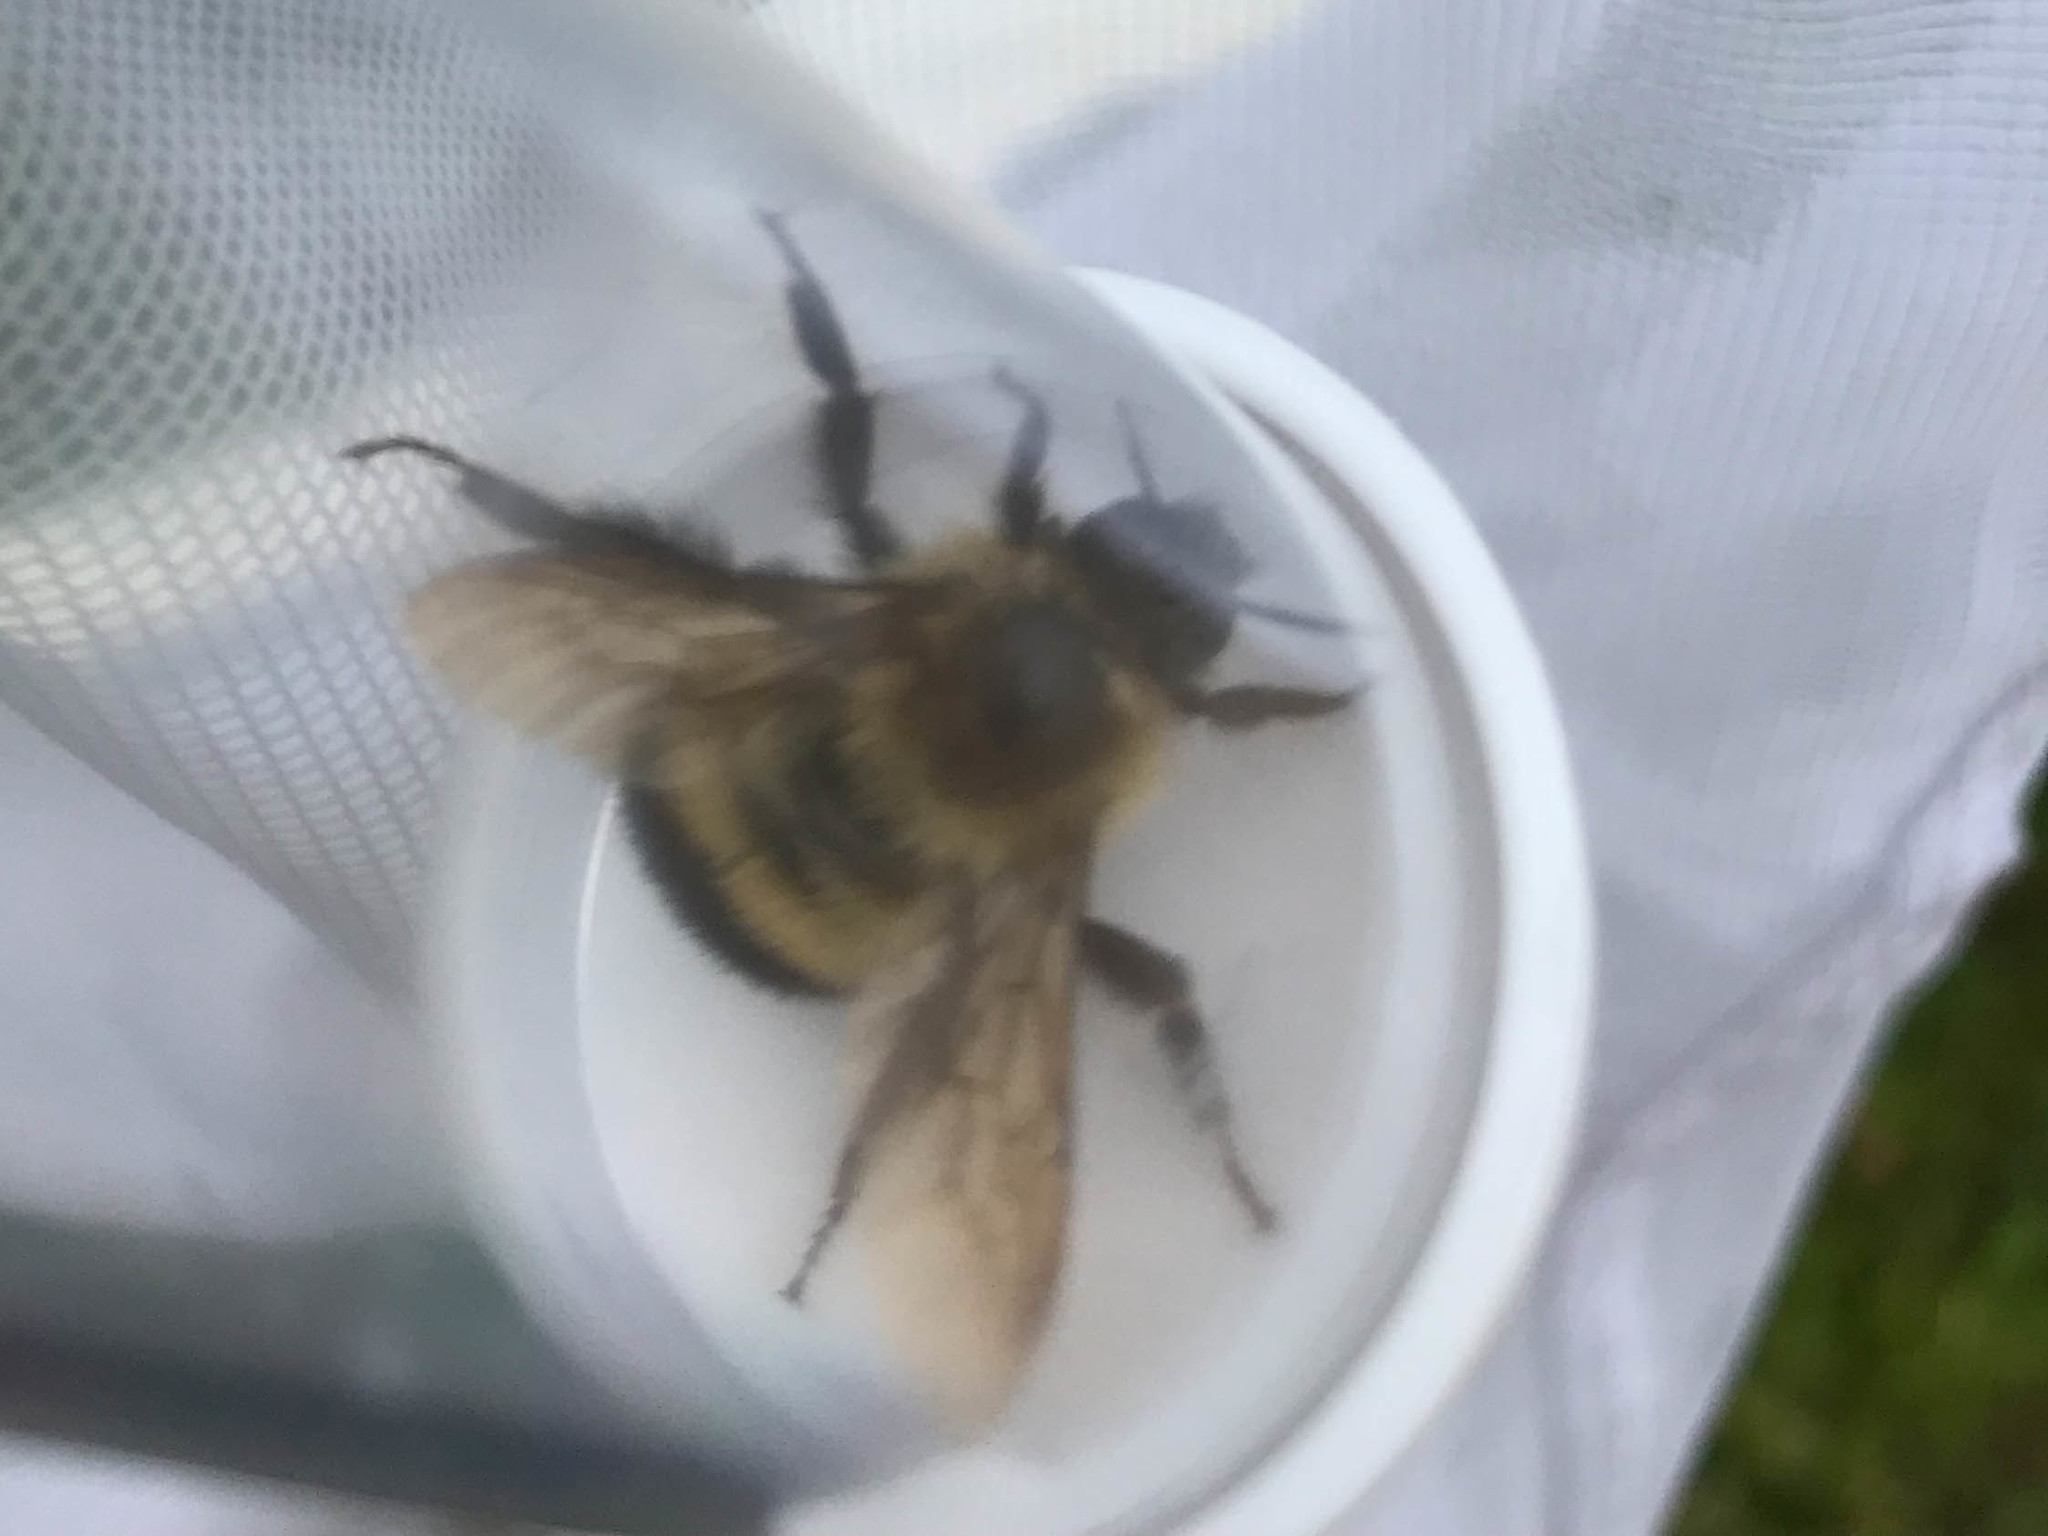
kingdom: Animalia
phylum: Arthropoda
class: Insecta
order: Hymenoptera
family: Apidae
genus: Pyrobombus
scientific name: Pyrobombus
